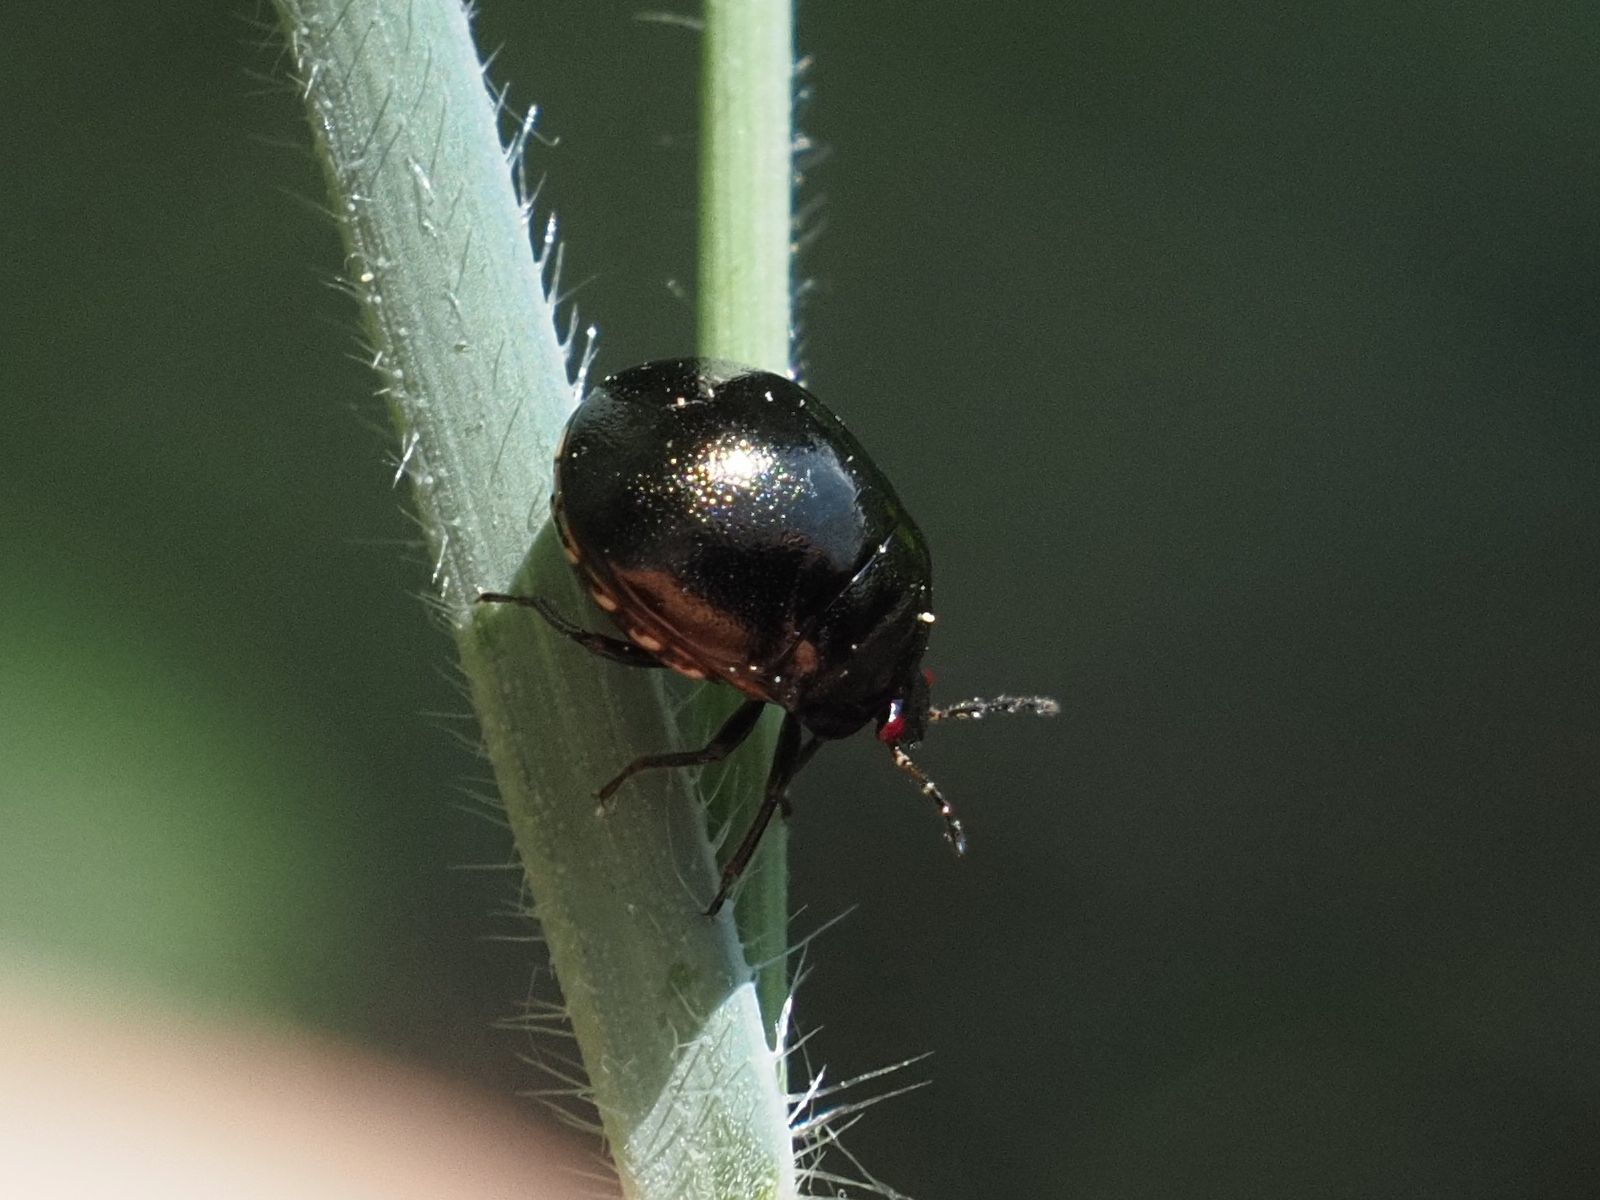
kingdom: Animalia
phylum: Arthropoda
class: Insecta
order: Hemiptera
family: Plataspidae
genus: Coptosoma
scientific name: Coptosoma scutellatum
